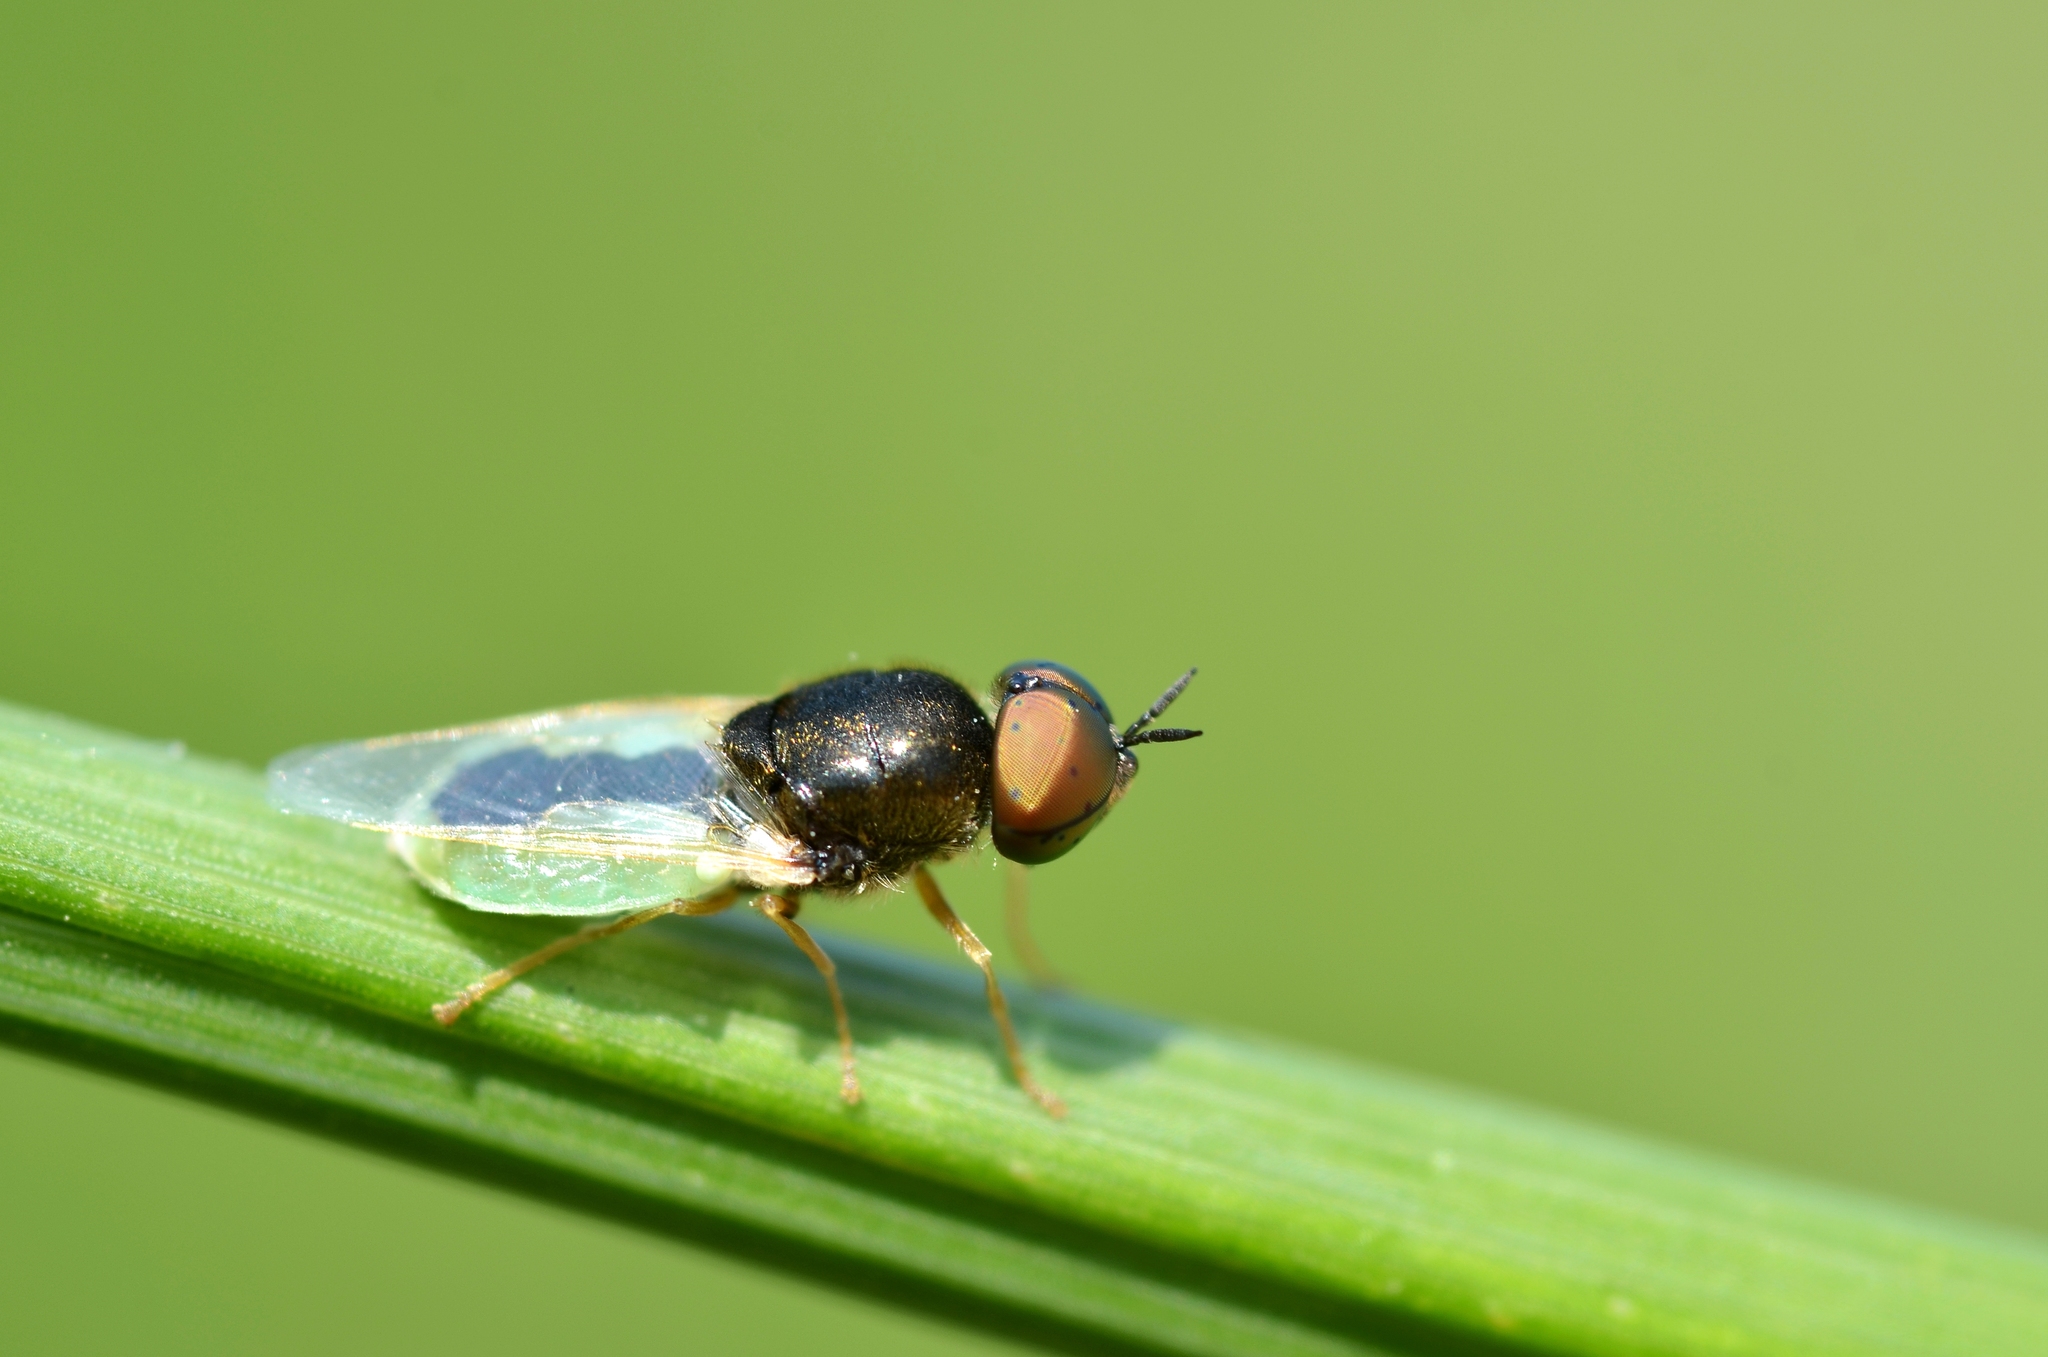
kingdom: Animalia
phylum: Arthropoda
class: Insecta
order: Diptera
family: Stratiomyidae
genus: Oplodontha
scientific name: Oplodontha viridula
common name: Common green colonel
